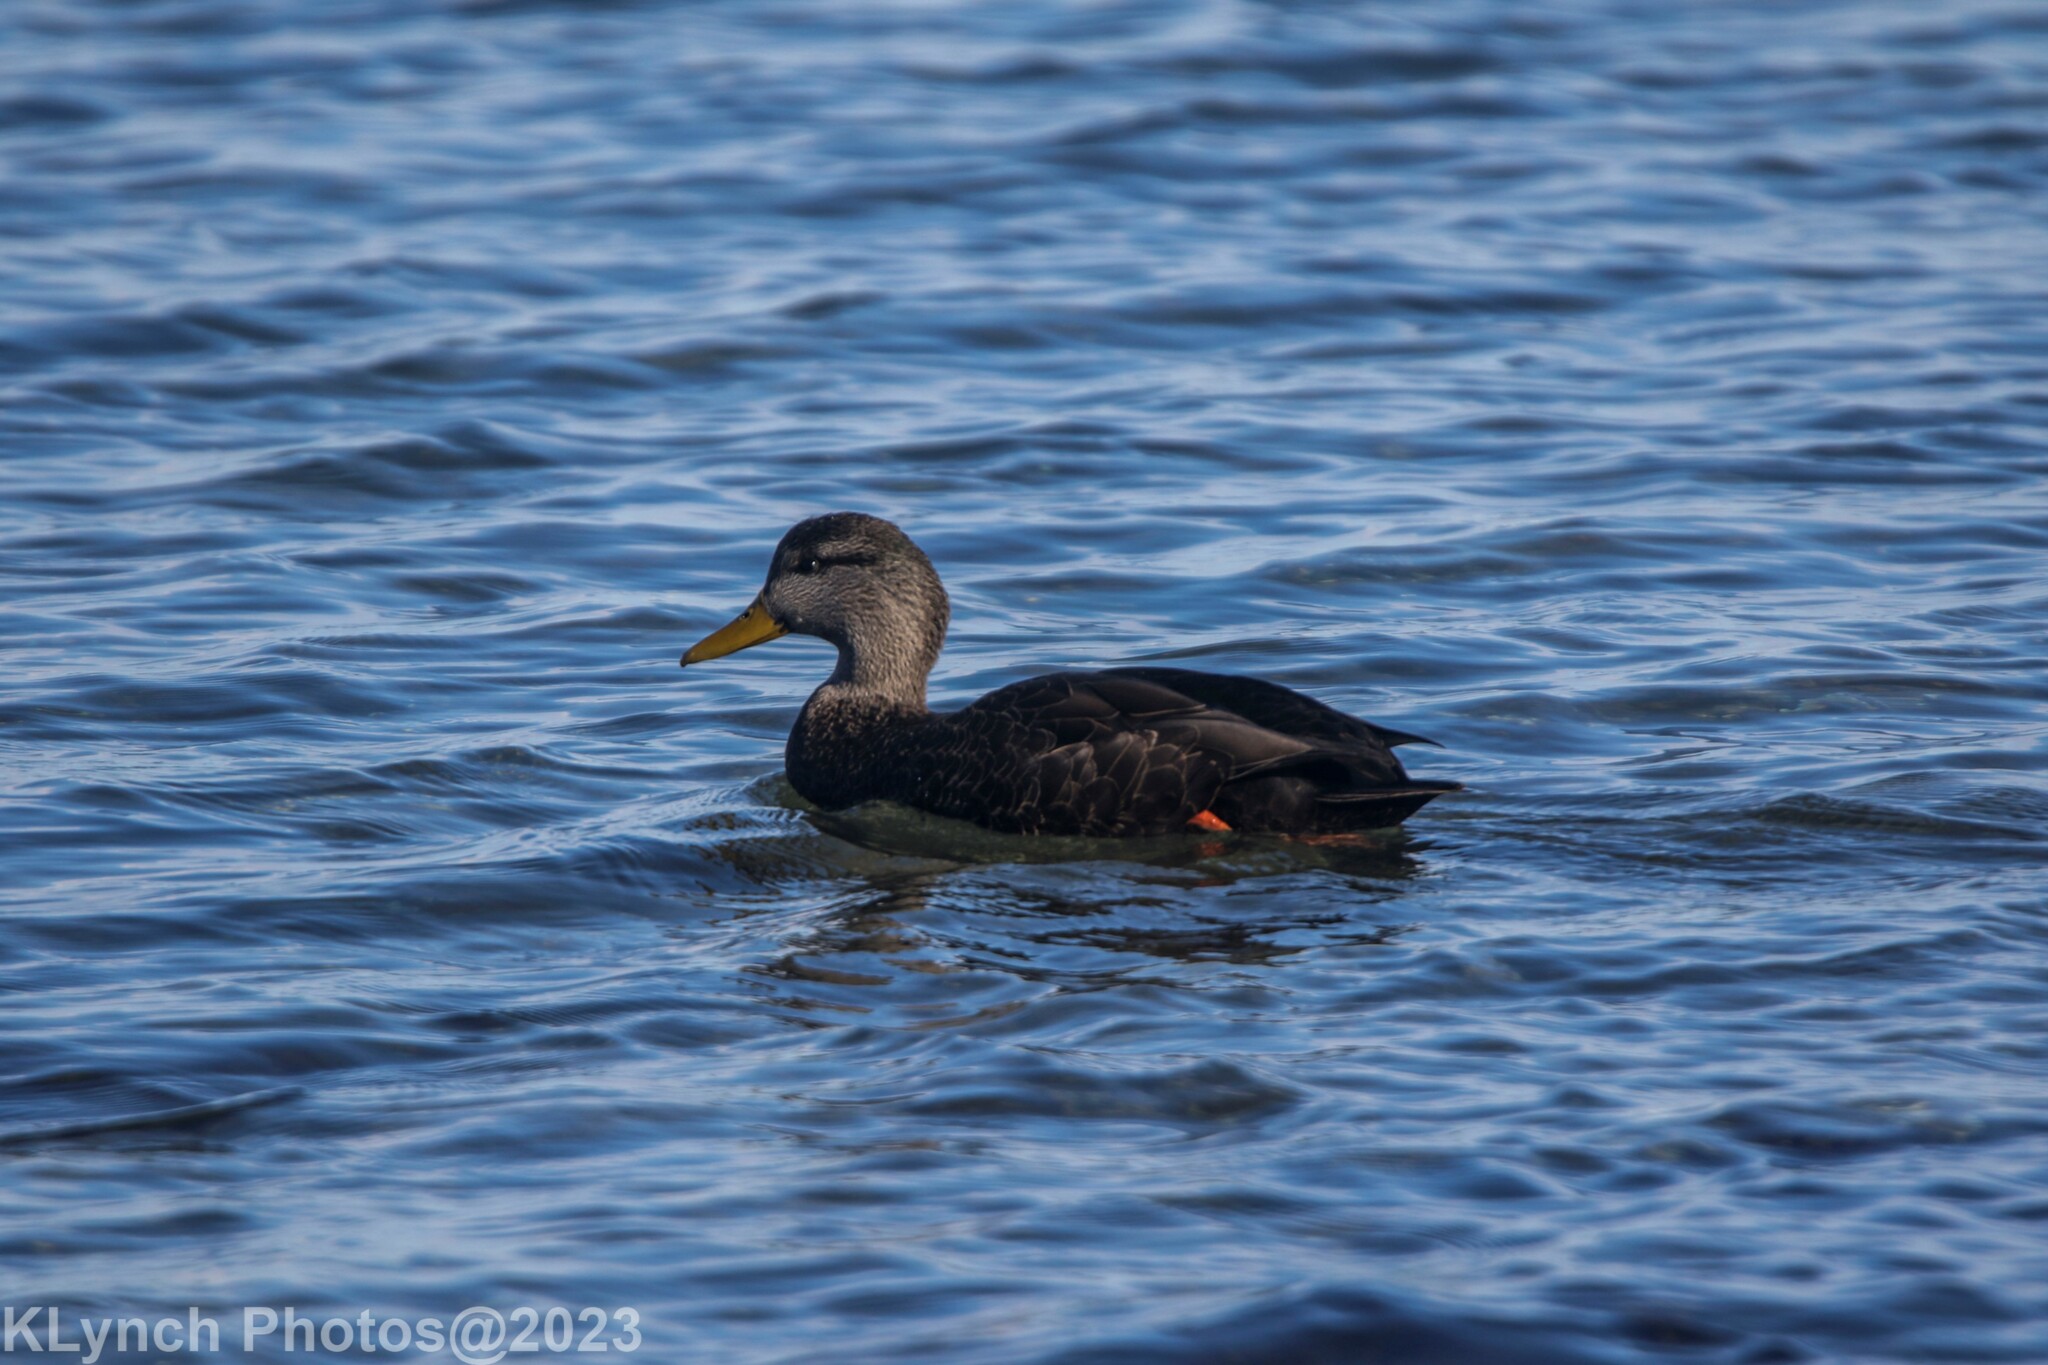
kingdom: Animalia
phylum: Chordata
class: Aves
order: Anseriformes
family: Anatidae
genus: Anas
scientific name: Anas rubripes
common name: American black duck
